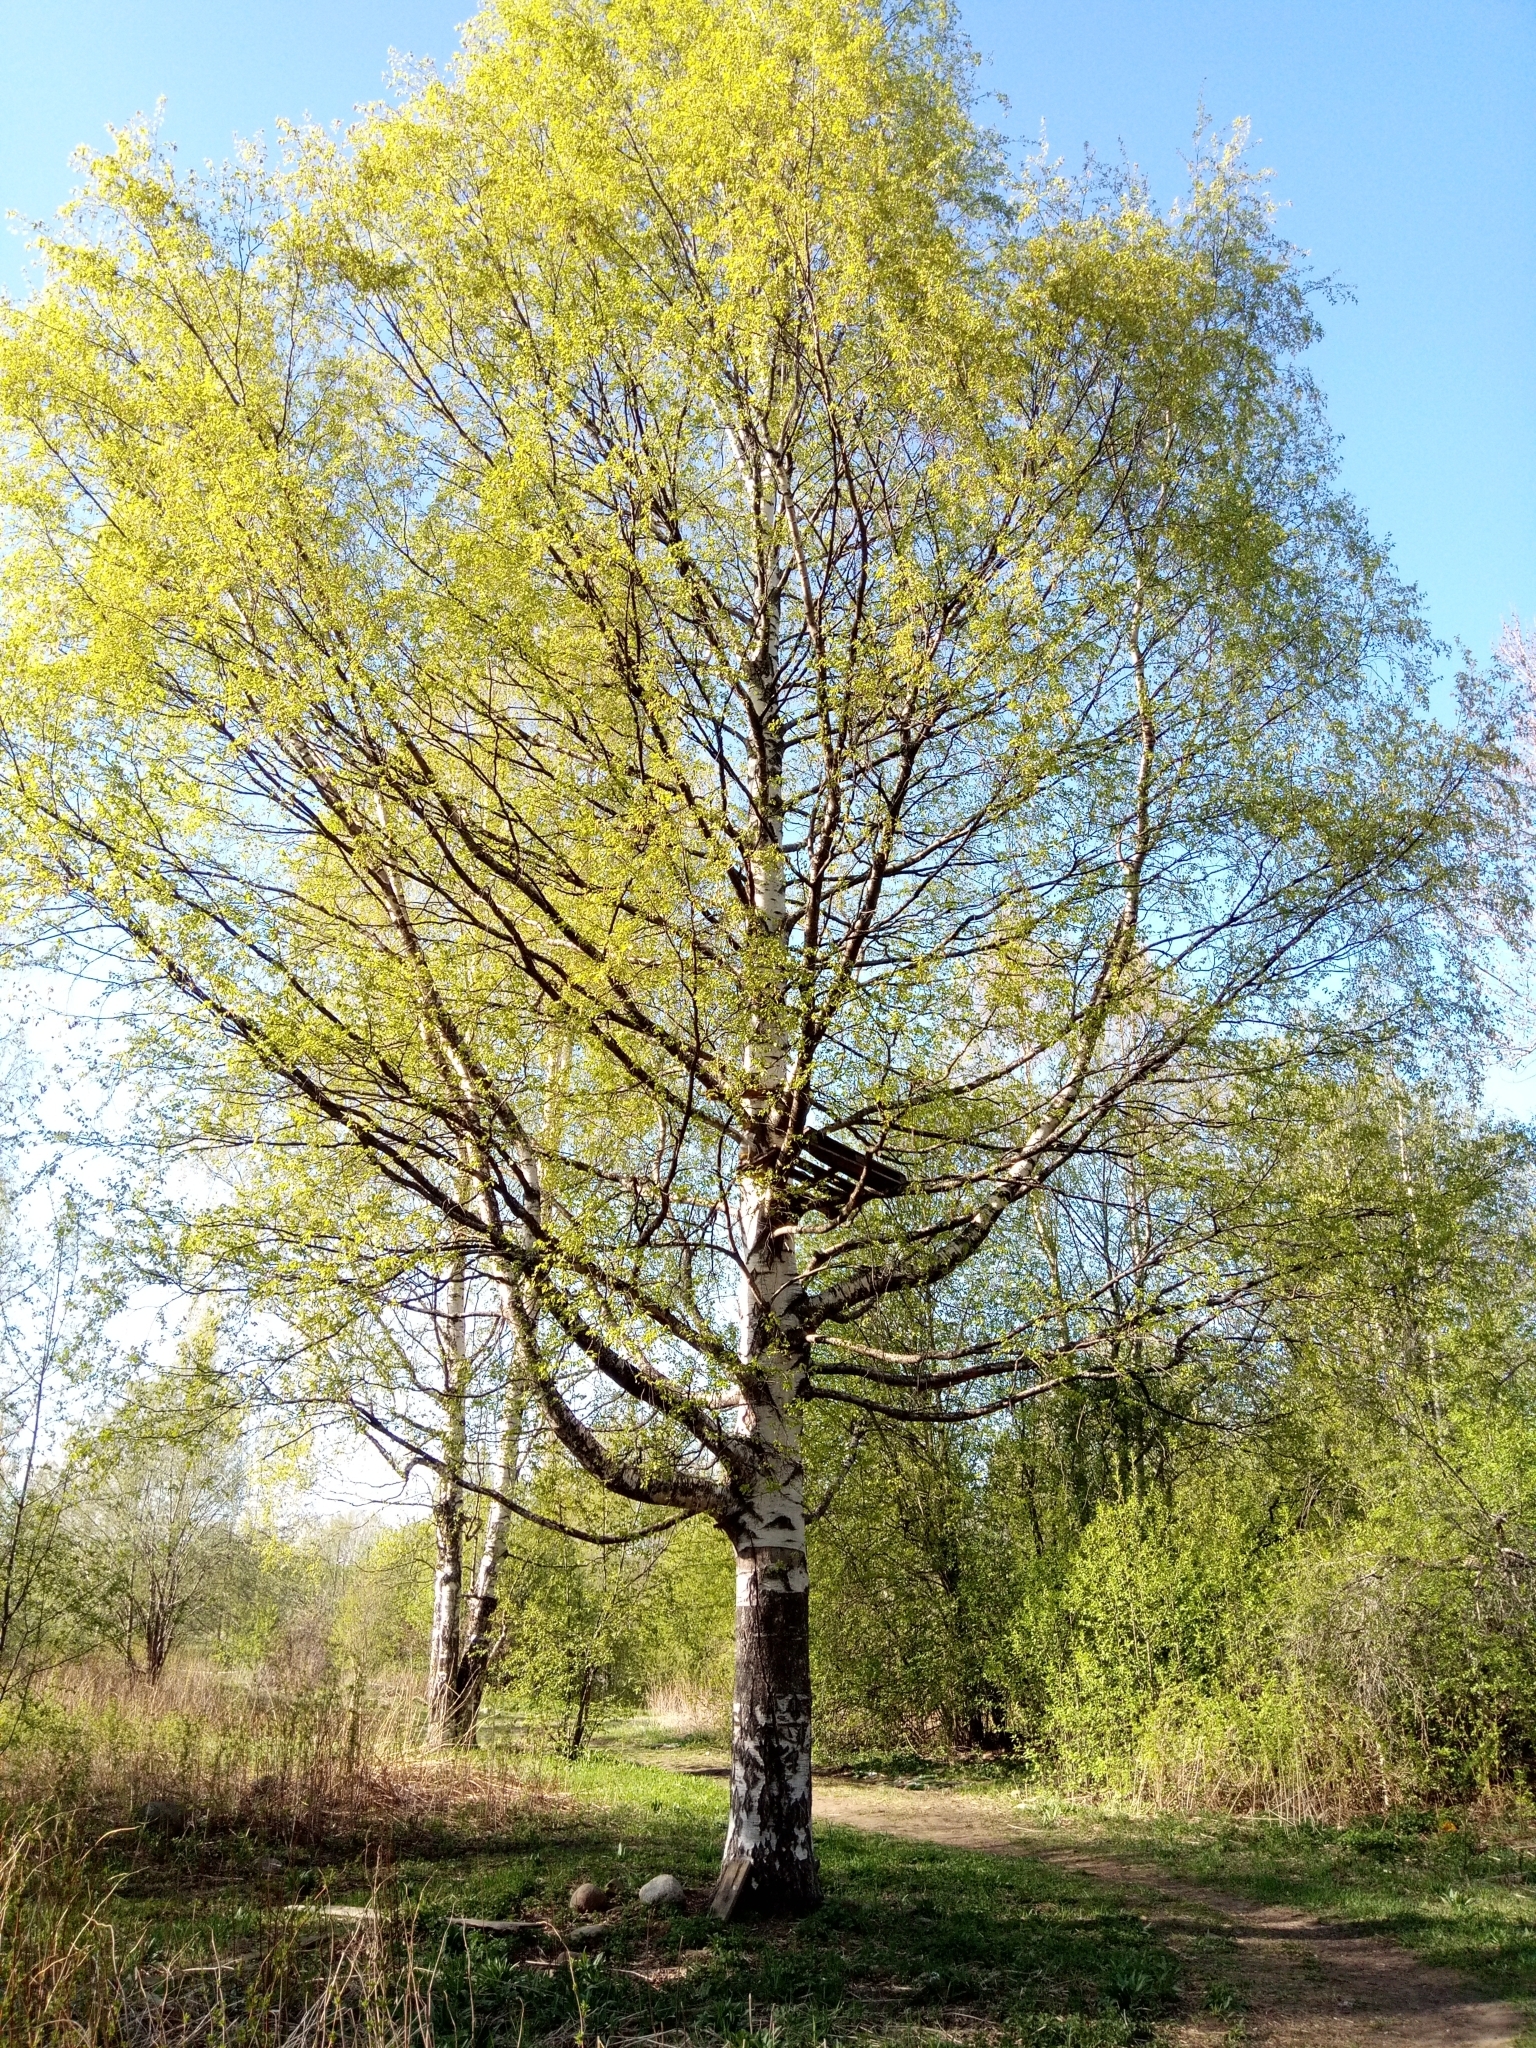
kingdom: Plantae
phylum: Tracheophyta
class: Magnoliopsida
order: Fagales
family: Betulaceae
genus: Betula
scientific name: Betula pendula
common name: Silver birch
